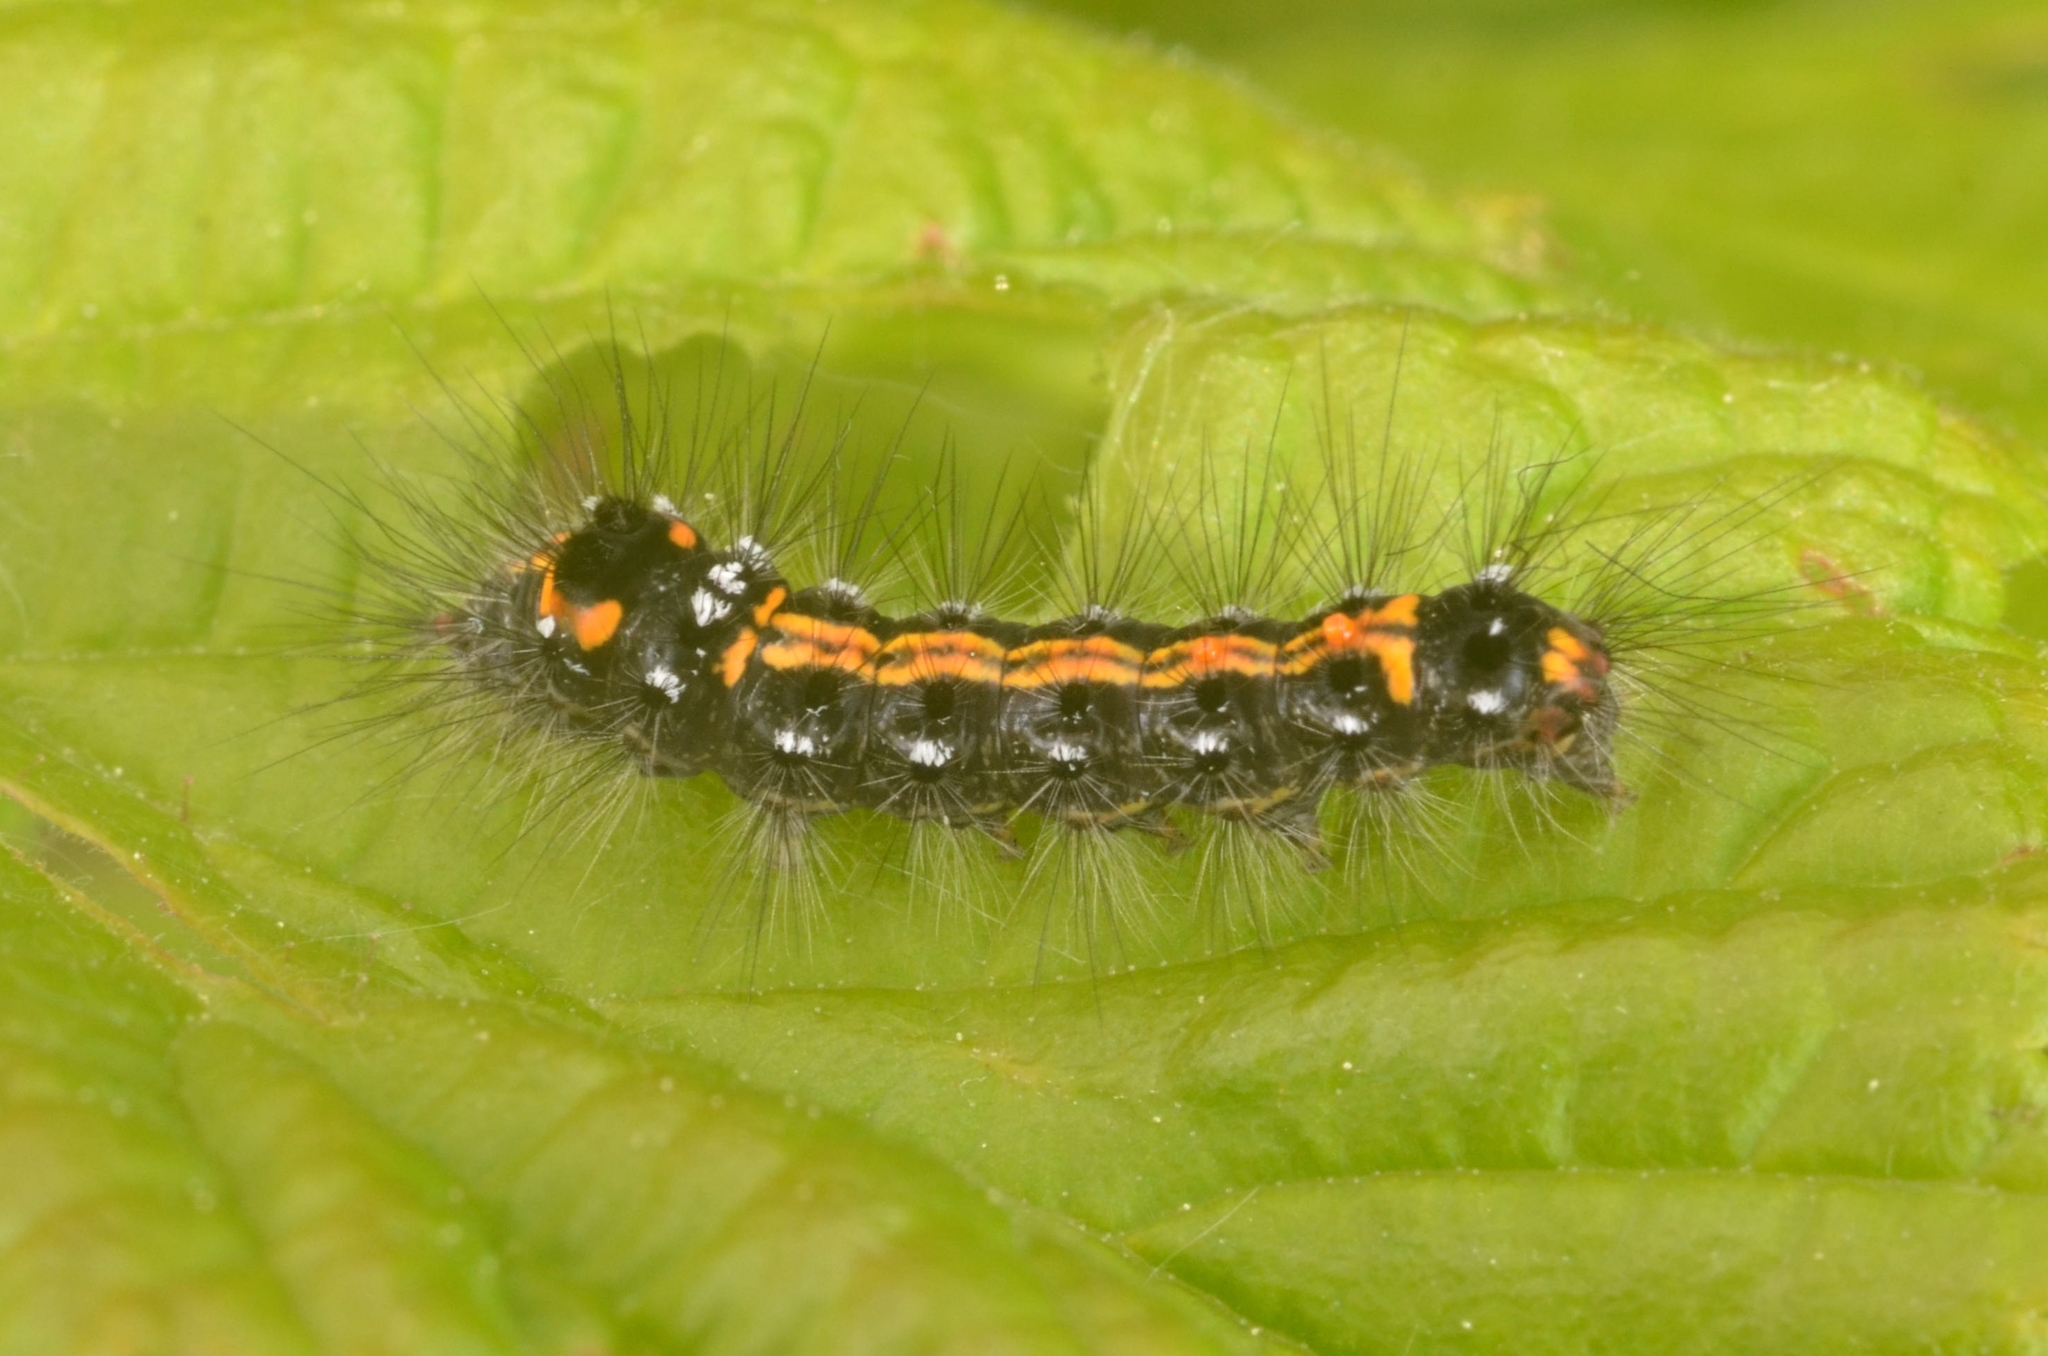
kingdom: Animalia
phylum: Arthropoda
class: Insecta
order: Lepidoptera
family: Erebidae
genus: Sphrageidus
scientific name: Sphrageidus similis
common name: Yellow-tail
